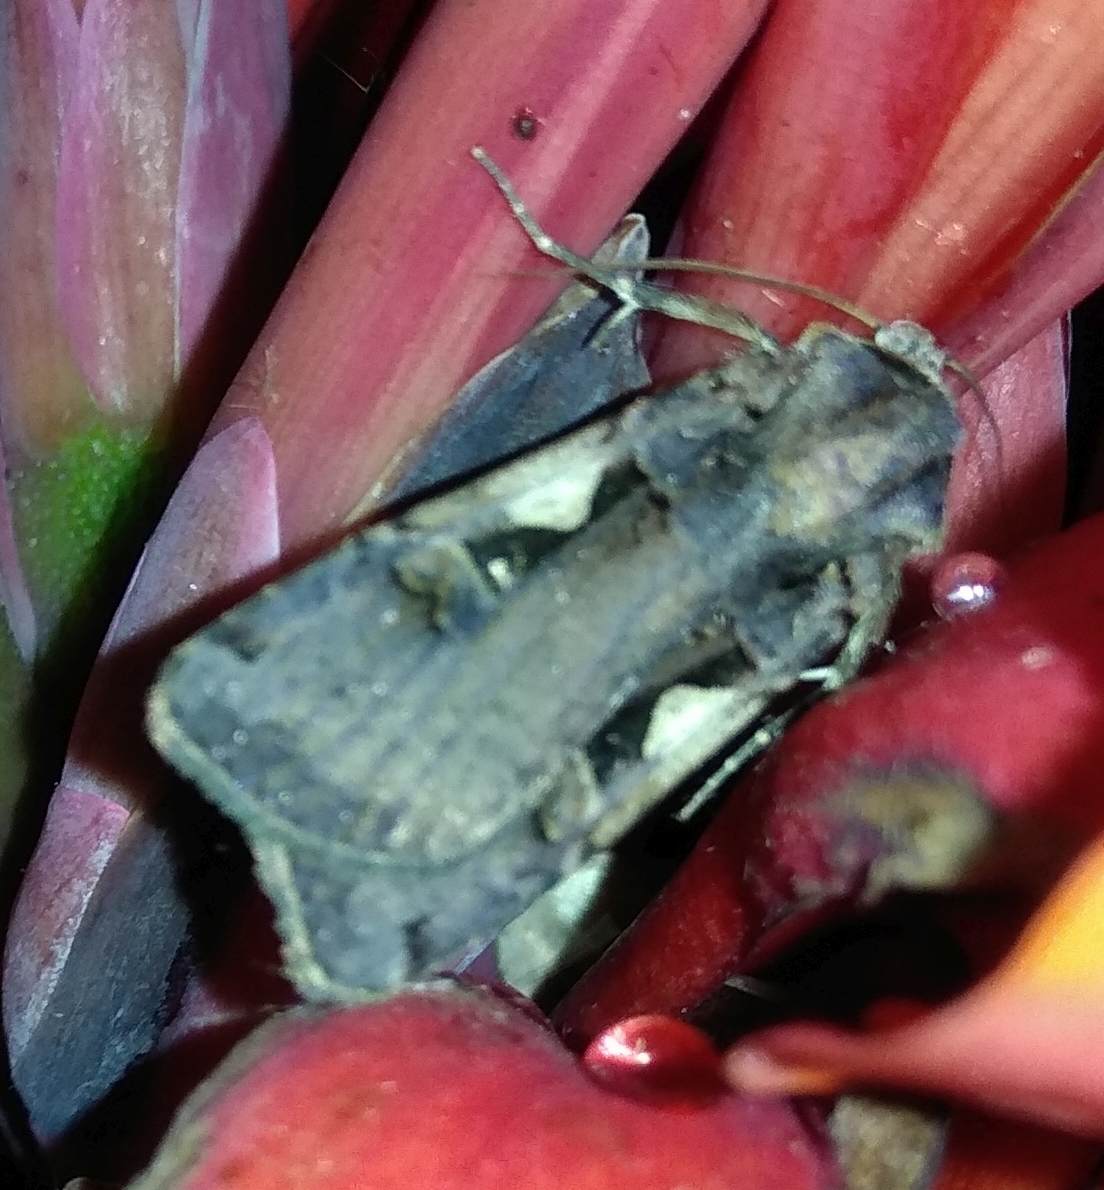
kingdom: Animalia
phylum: Arthropoda
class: Insecta
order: Lepidoptera
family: Noctuidae
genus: Xestia
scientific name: Xestia c-nigrum
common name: Setaceous hebrew character
